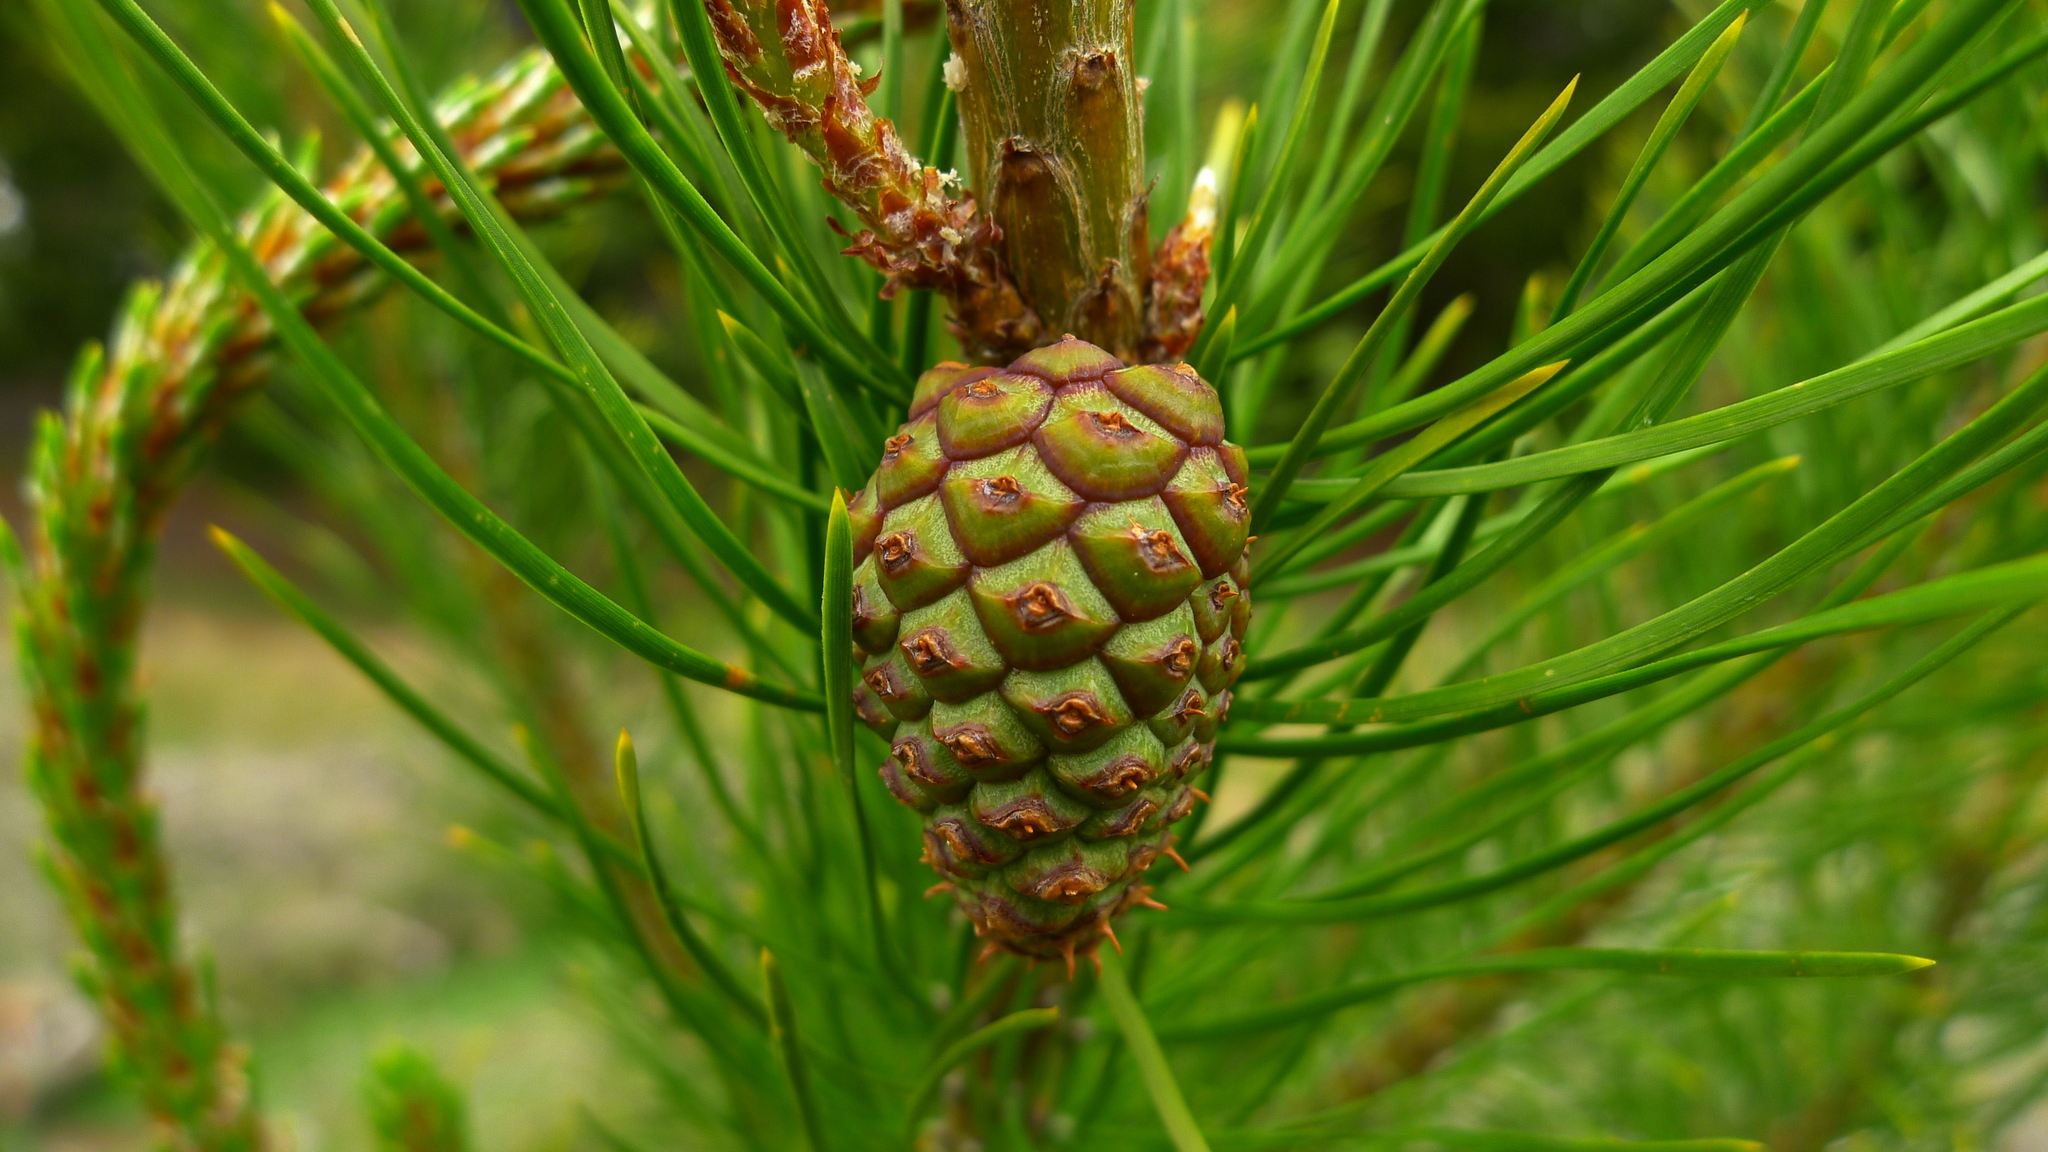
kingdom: Plantae
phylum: Tracheophyta
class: Pinopsida
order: Pinales
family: Pinaceae
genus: Pinus
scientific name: Pinus contorta
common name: Lodgepole pine
